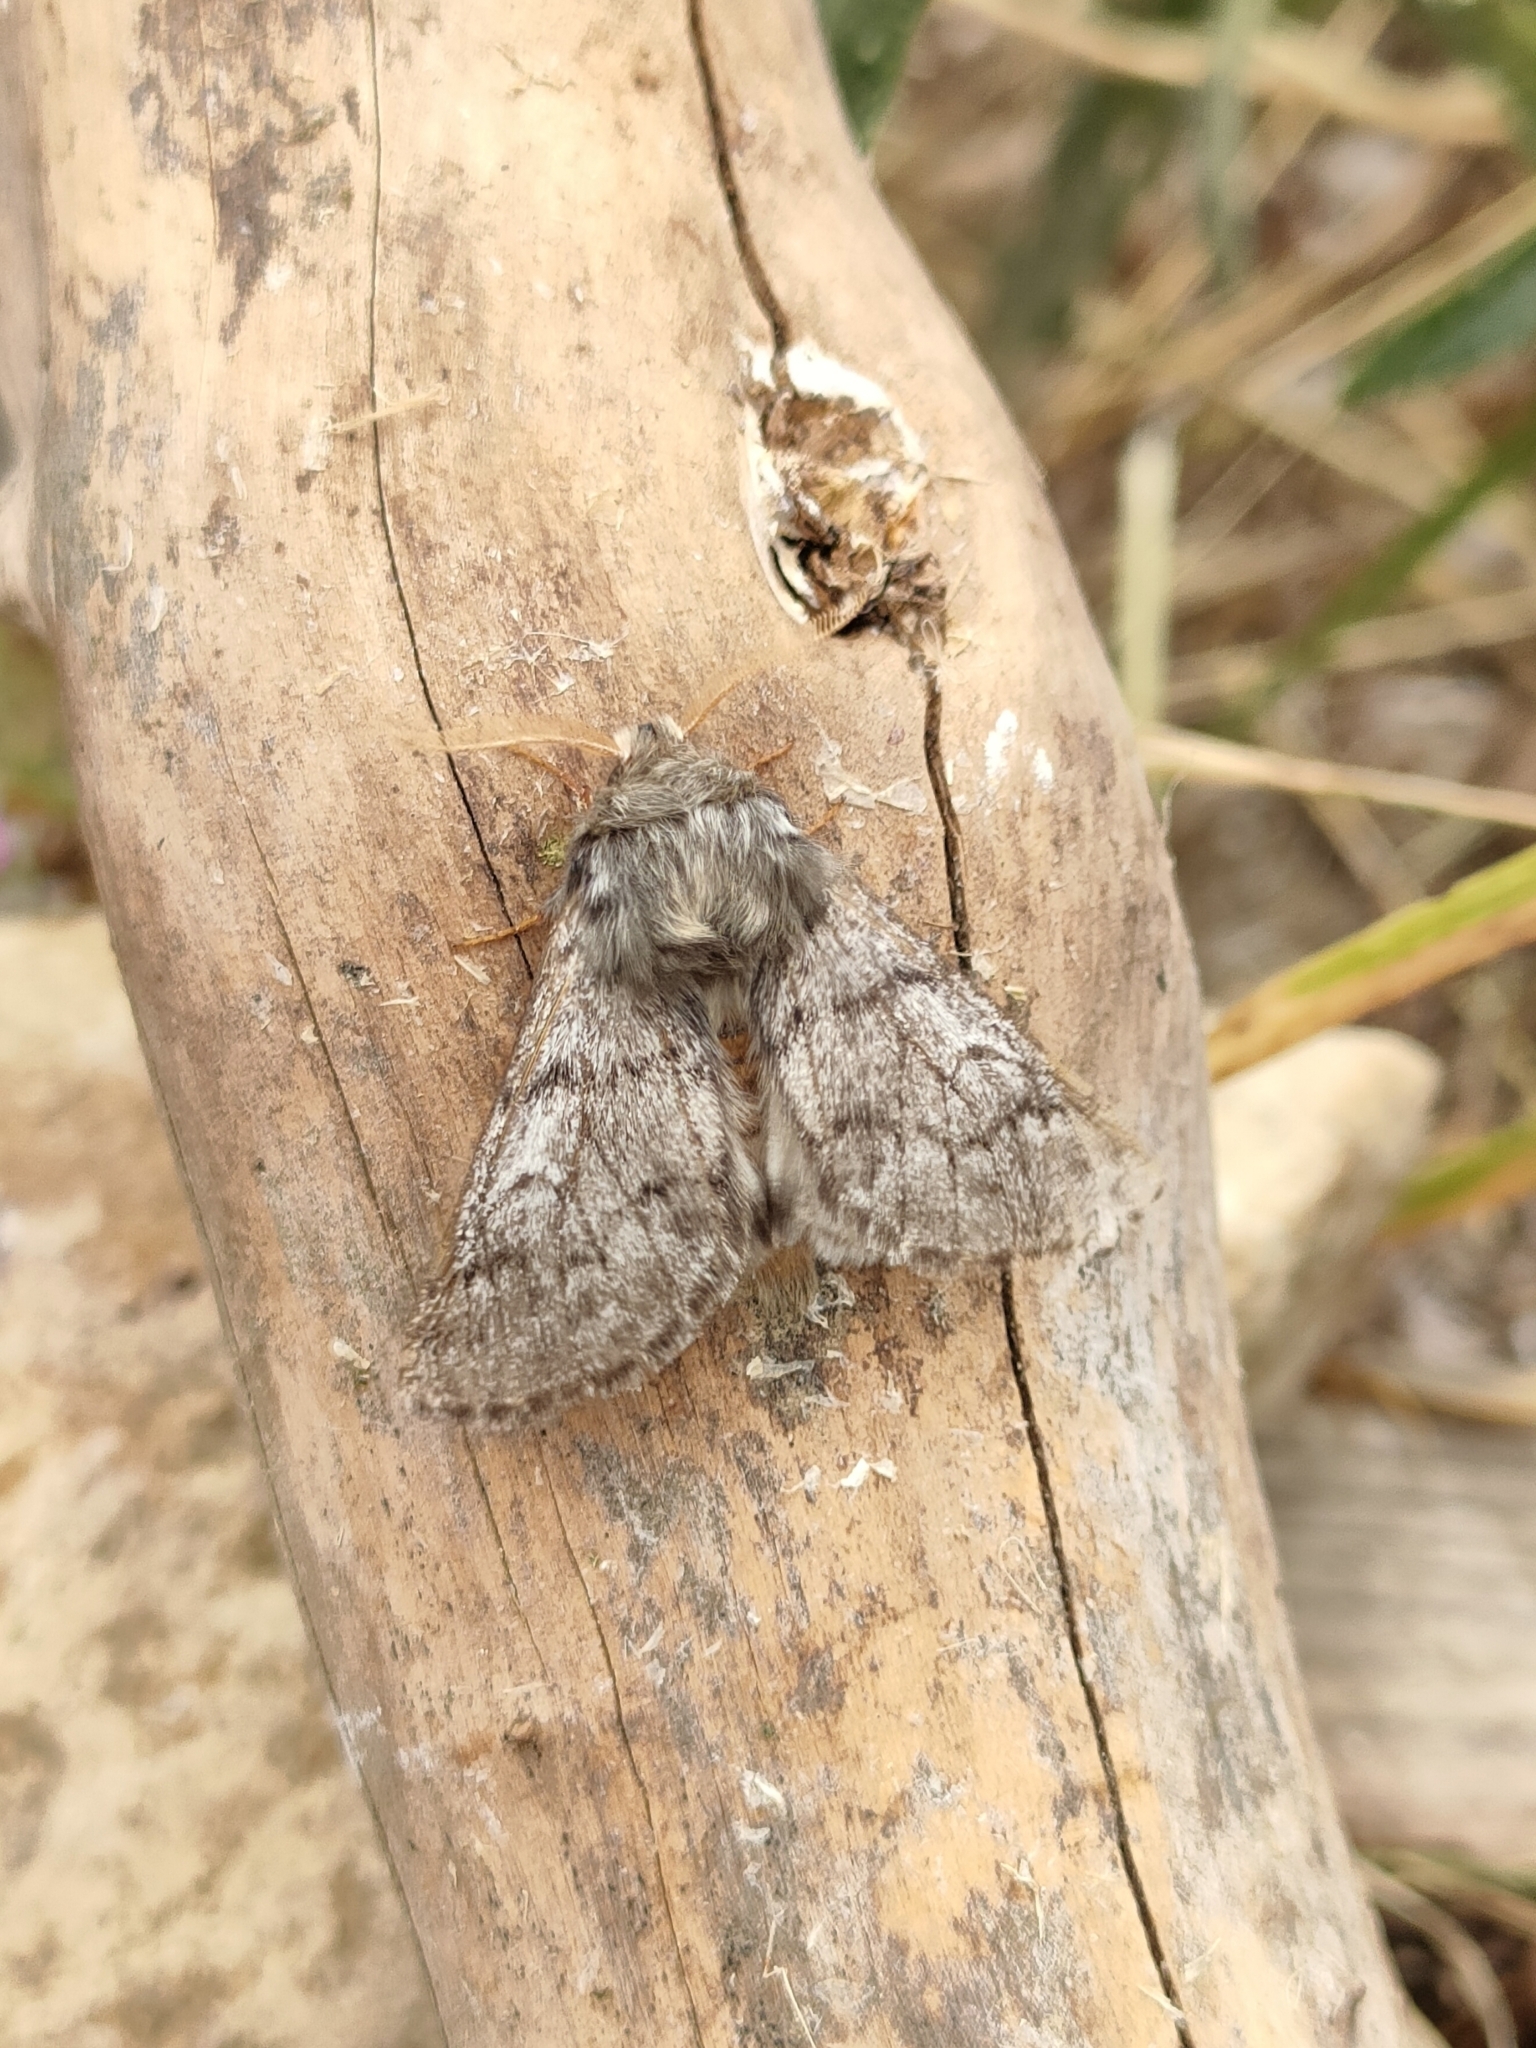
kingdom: Animalia
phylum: Arthropoda
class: Insecta
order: Lepidoptera
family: Notodontidae
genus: Thaumetopoea
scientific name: Thaumetopoea pityocampa
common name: Pine processionary
